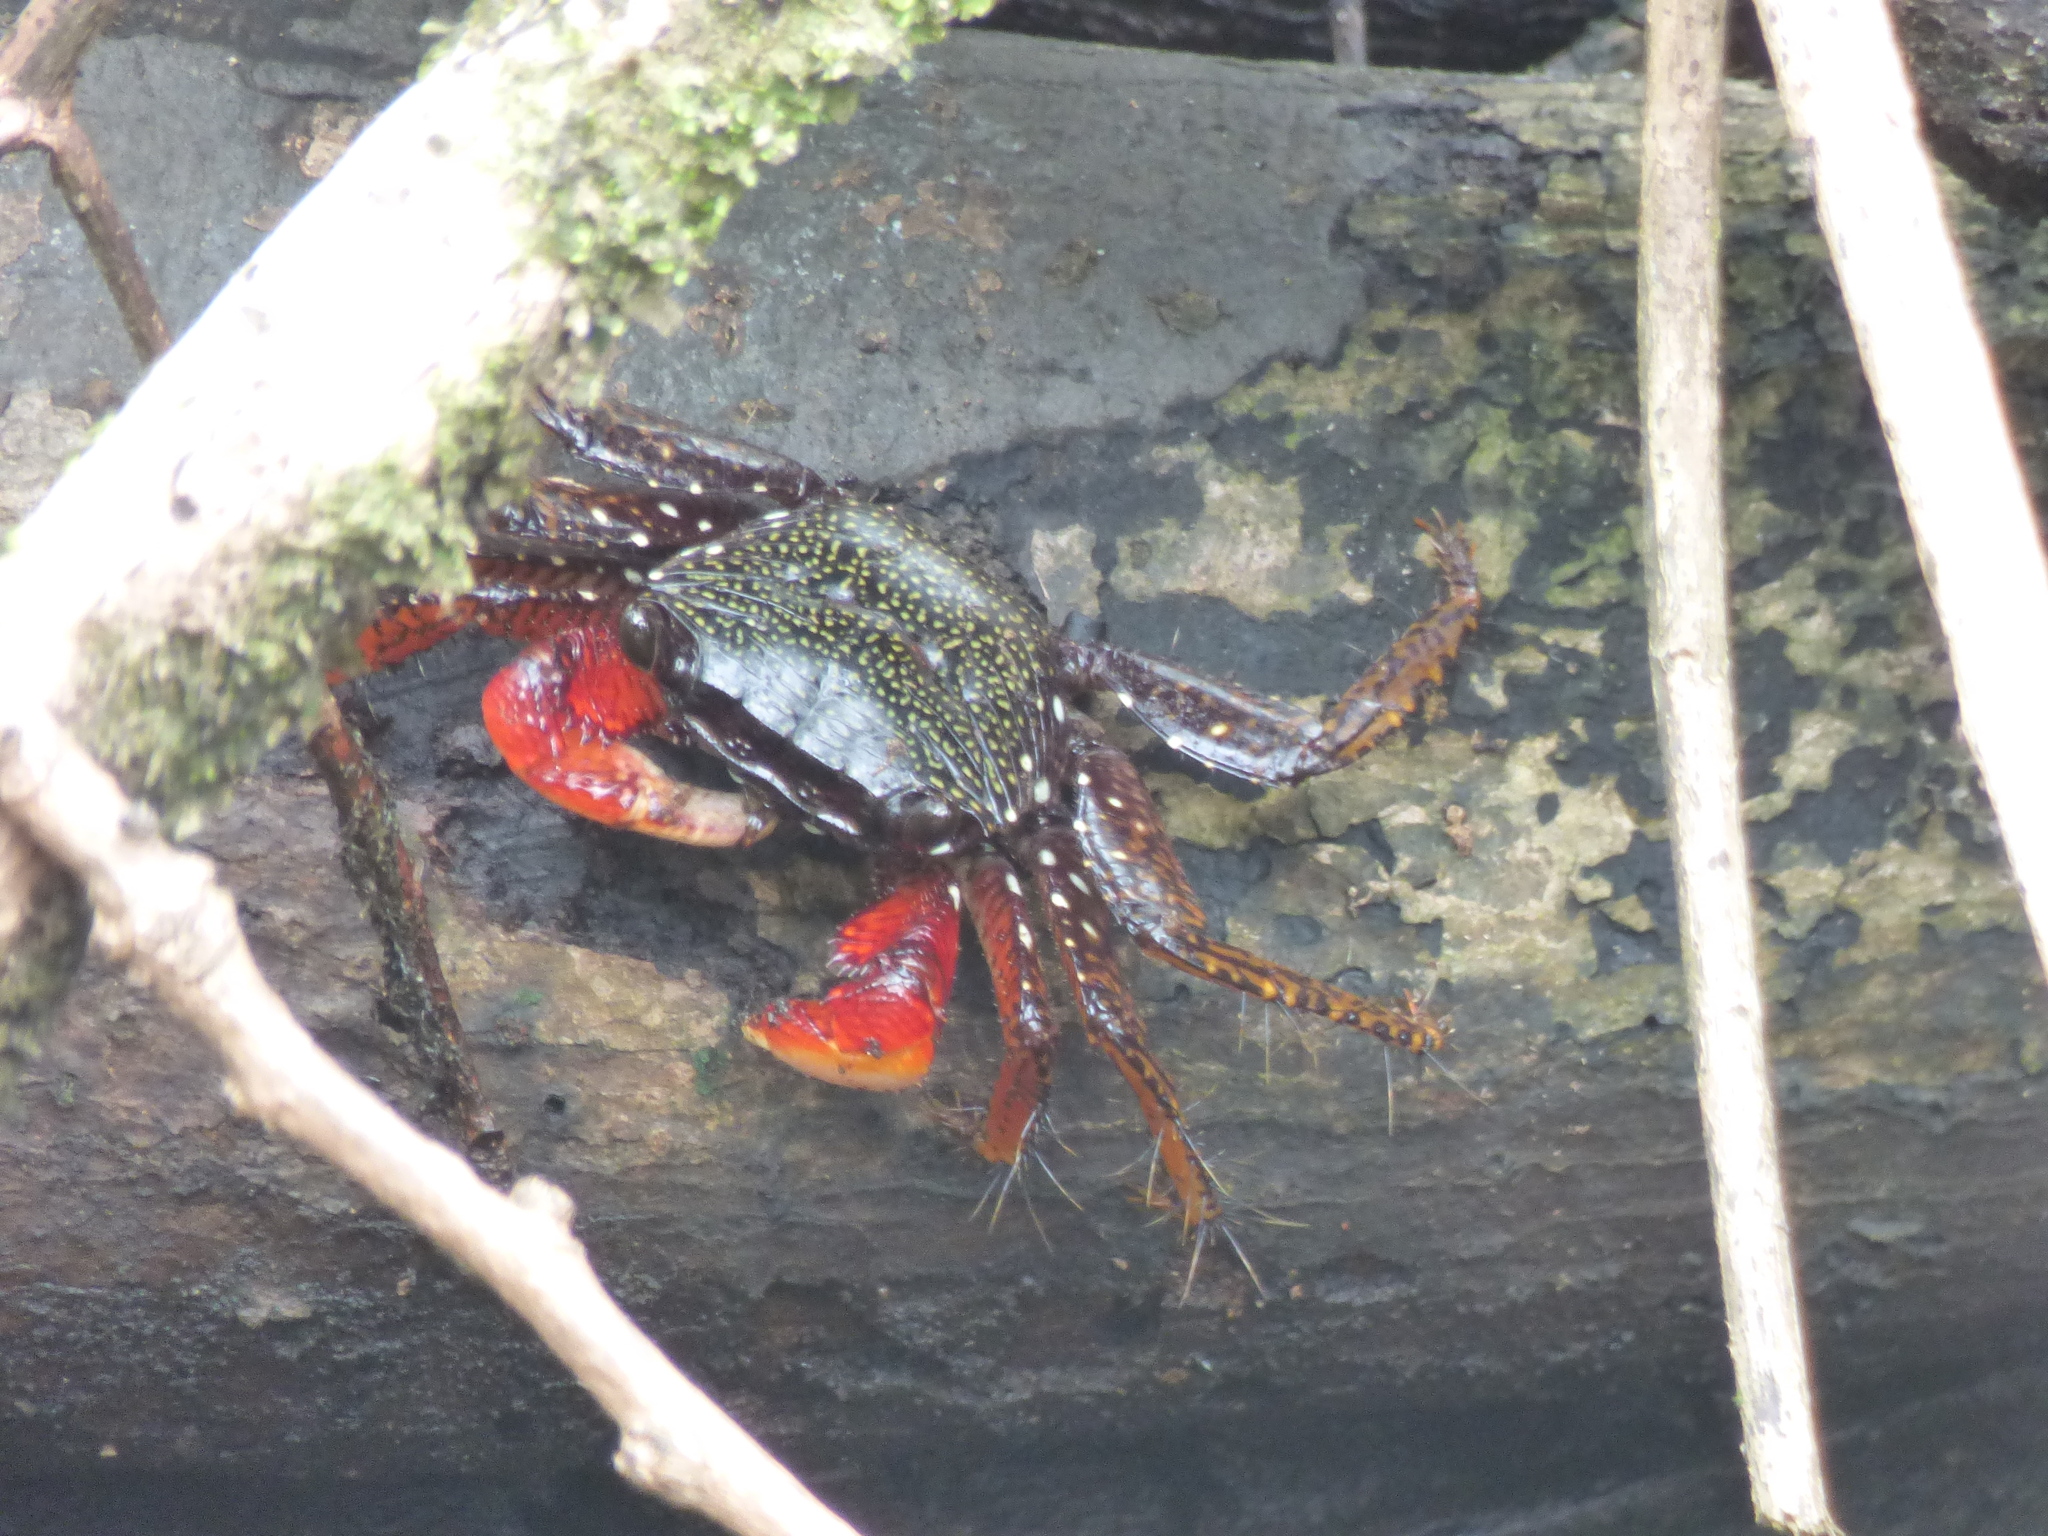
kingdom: Animalia
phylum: Arthropoda
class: Malacostraca
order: Decapoda
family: Grapsidae
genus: Goniopsis
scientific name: Goniopsis pulchra
